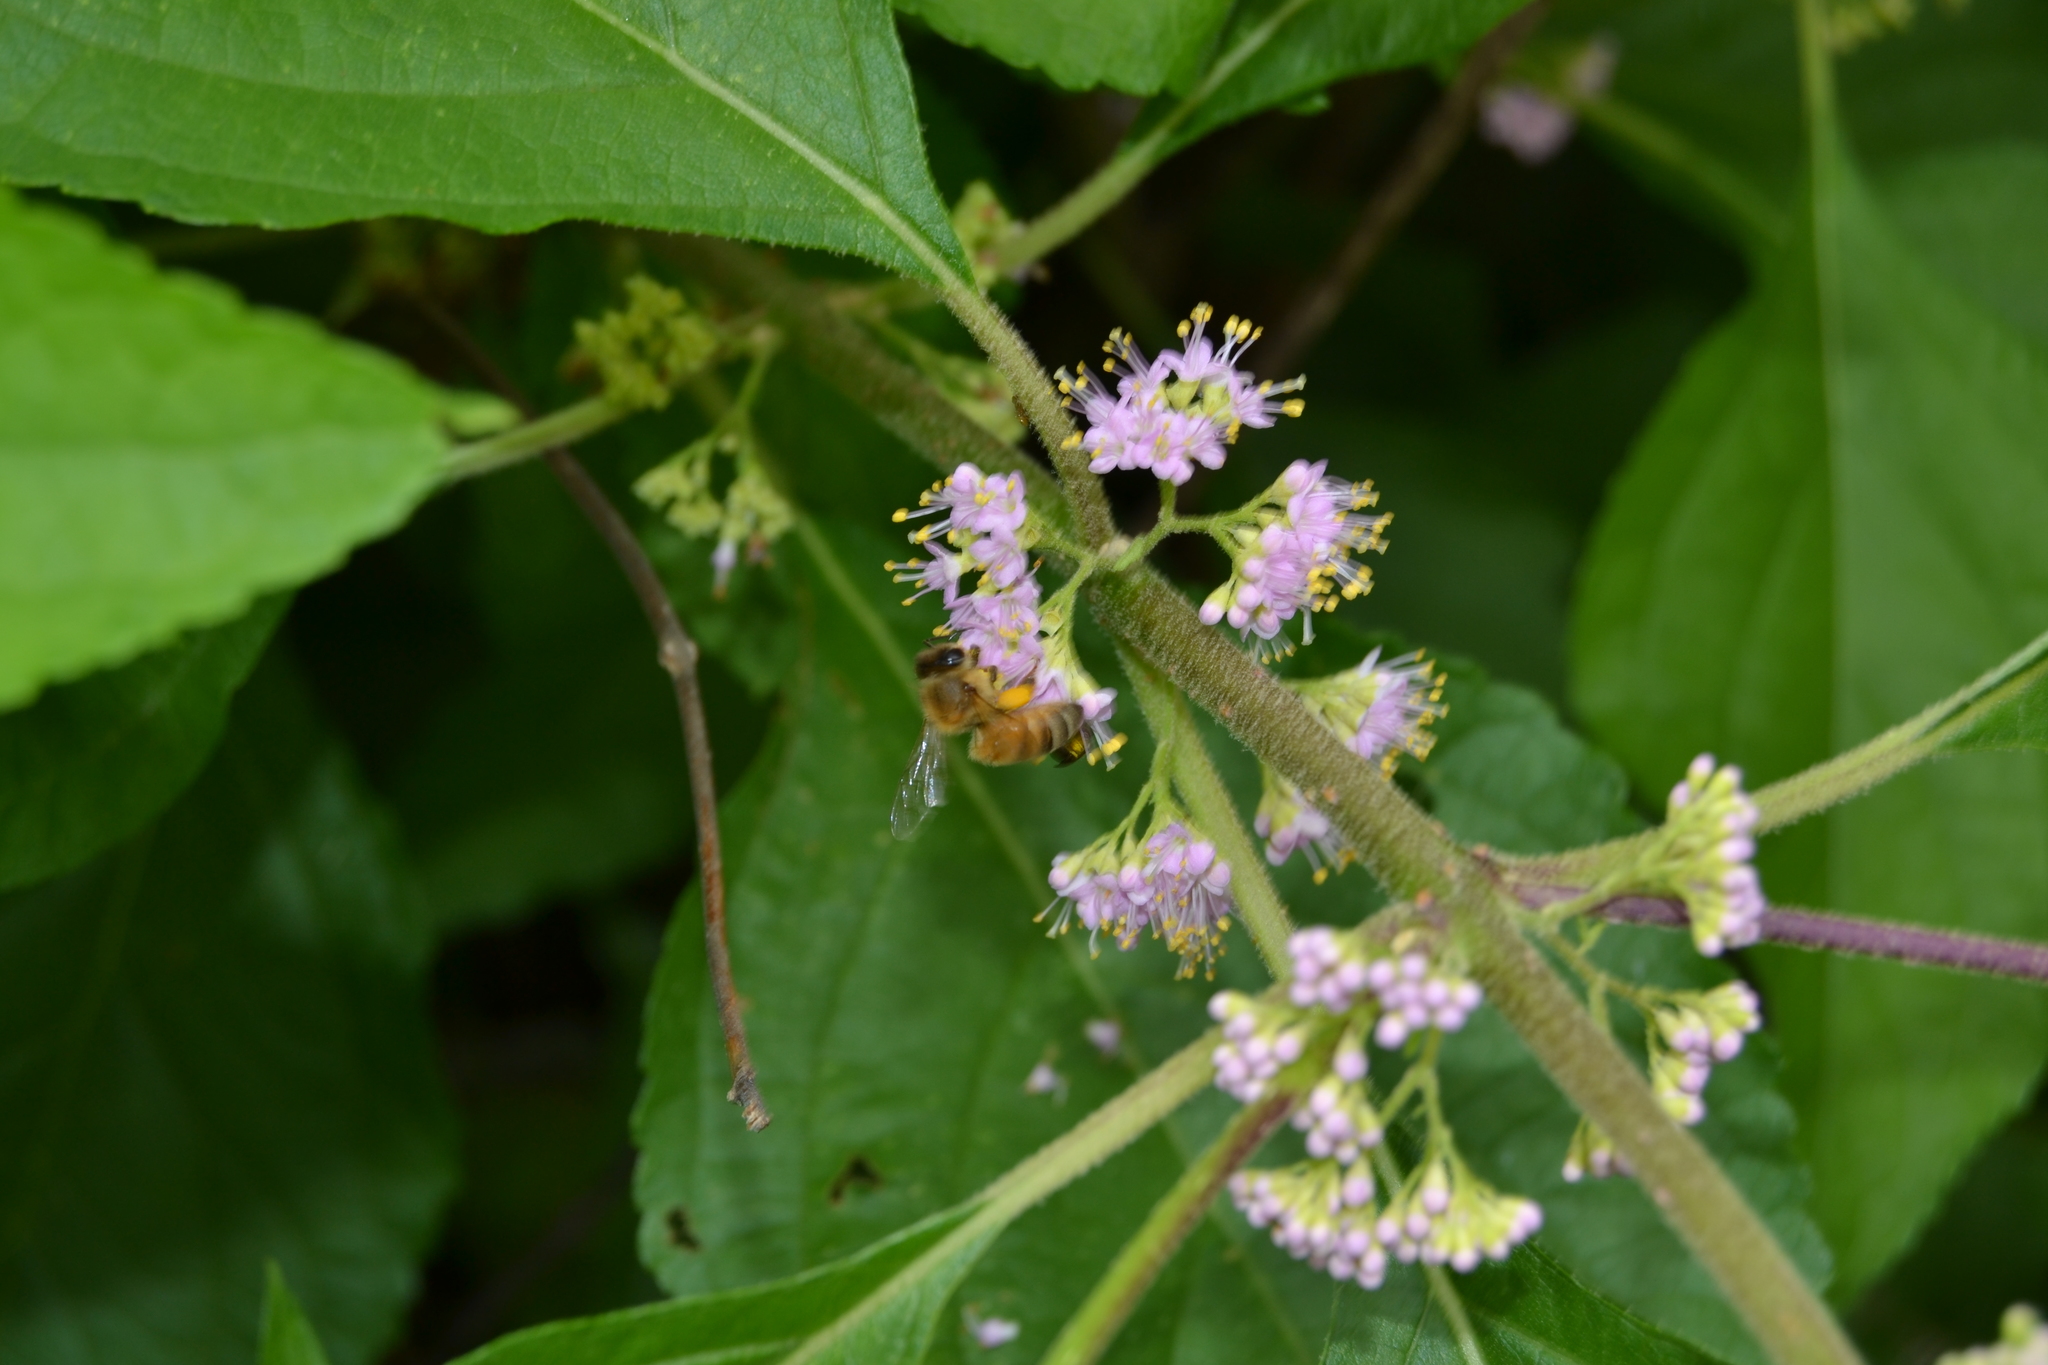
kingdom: Animalia
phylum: Arthropoda
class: Insecta
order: Hymenoptera
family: Apidae
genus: Apis
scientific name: Apis mellifera
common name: Honey bee
